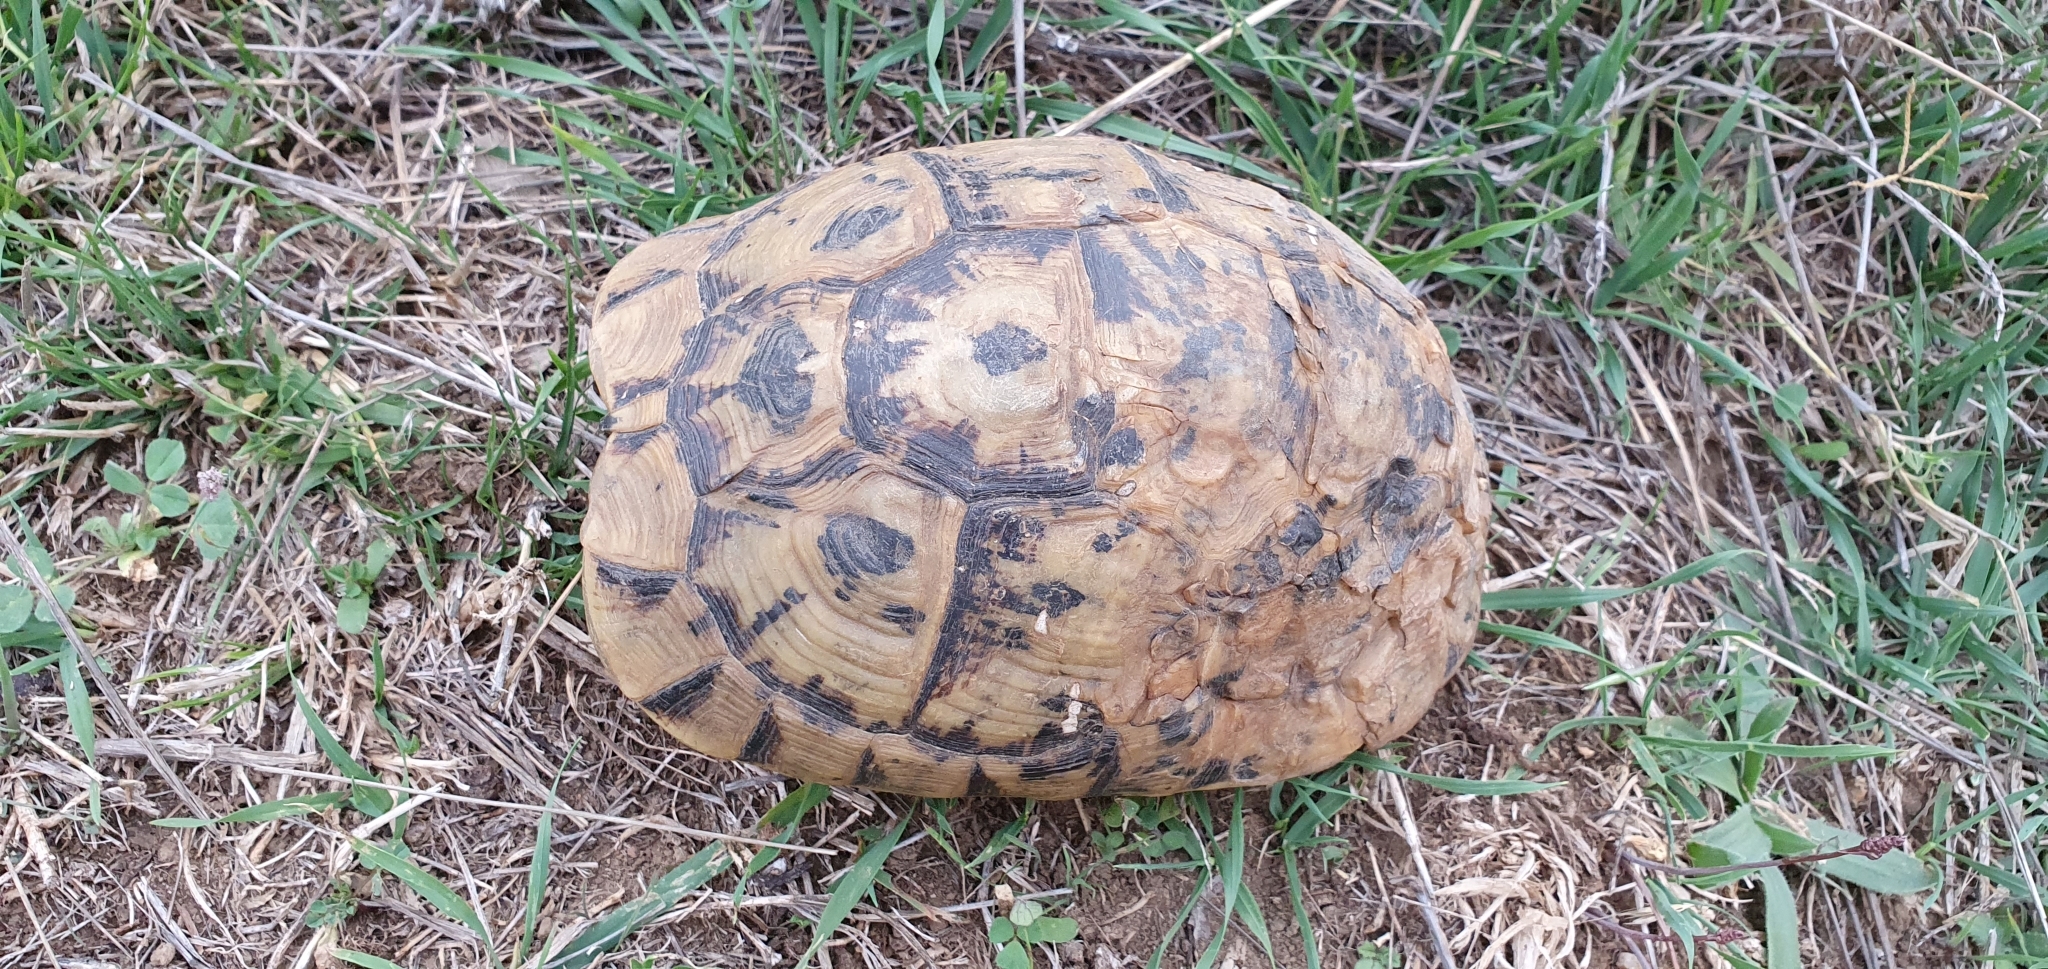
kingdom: Animalia
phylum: Chordata
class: Testudines
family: Testudinidae
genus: Testudo
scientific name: Testudo graeca
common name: Common tortoise
